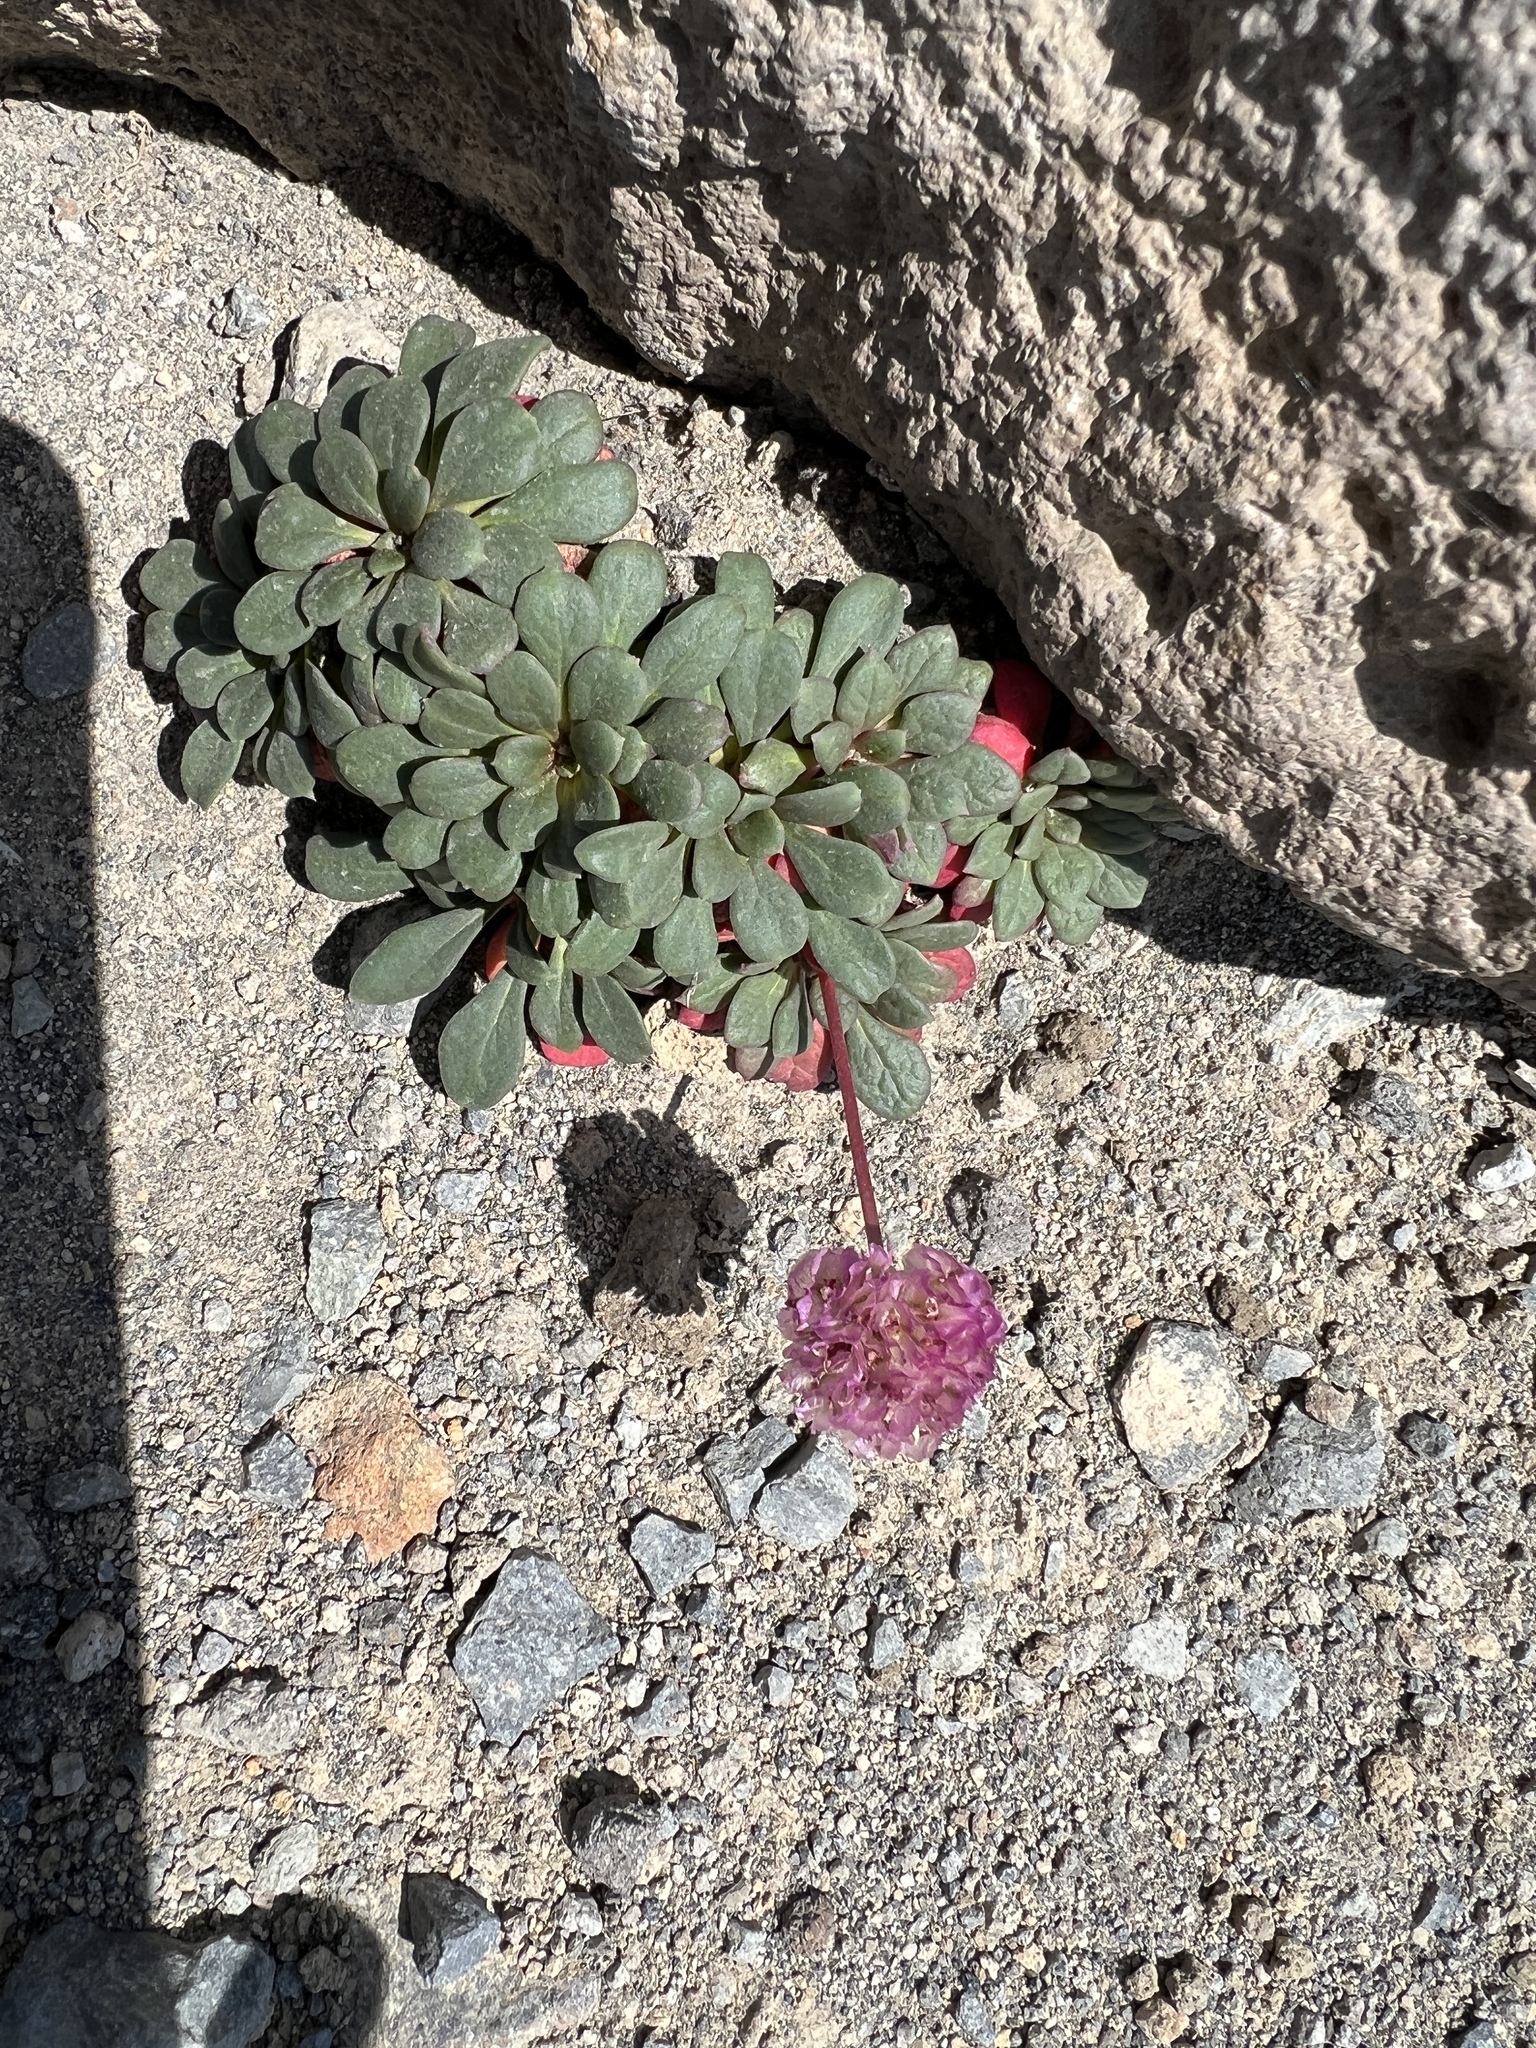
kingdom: Plantae
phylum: Tracheophyta
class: Magnoliopsida
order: Caryophyllales
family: Montiaceae
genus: Calyptridium
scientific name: Calyptridium umbellatum
